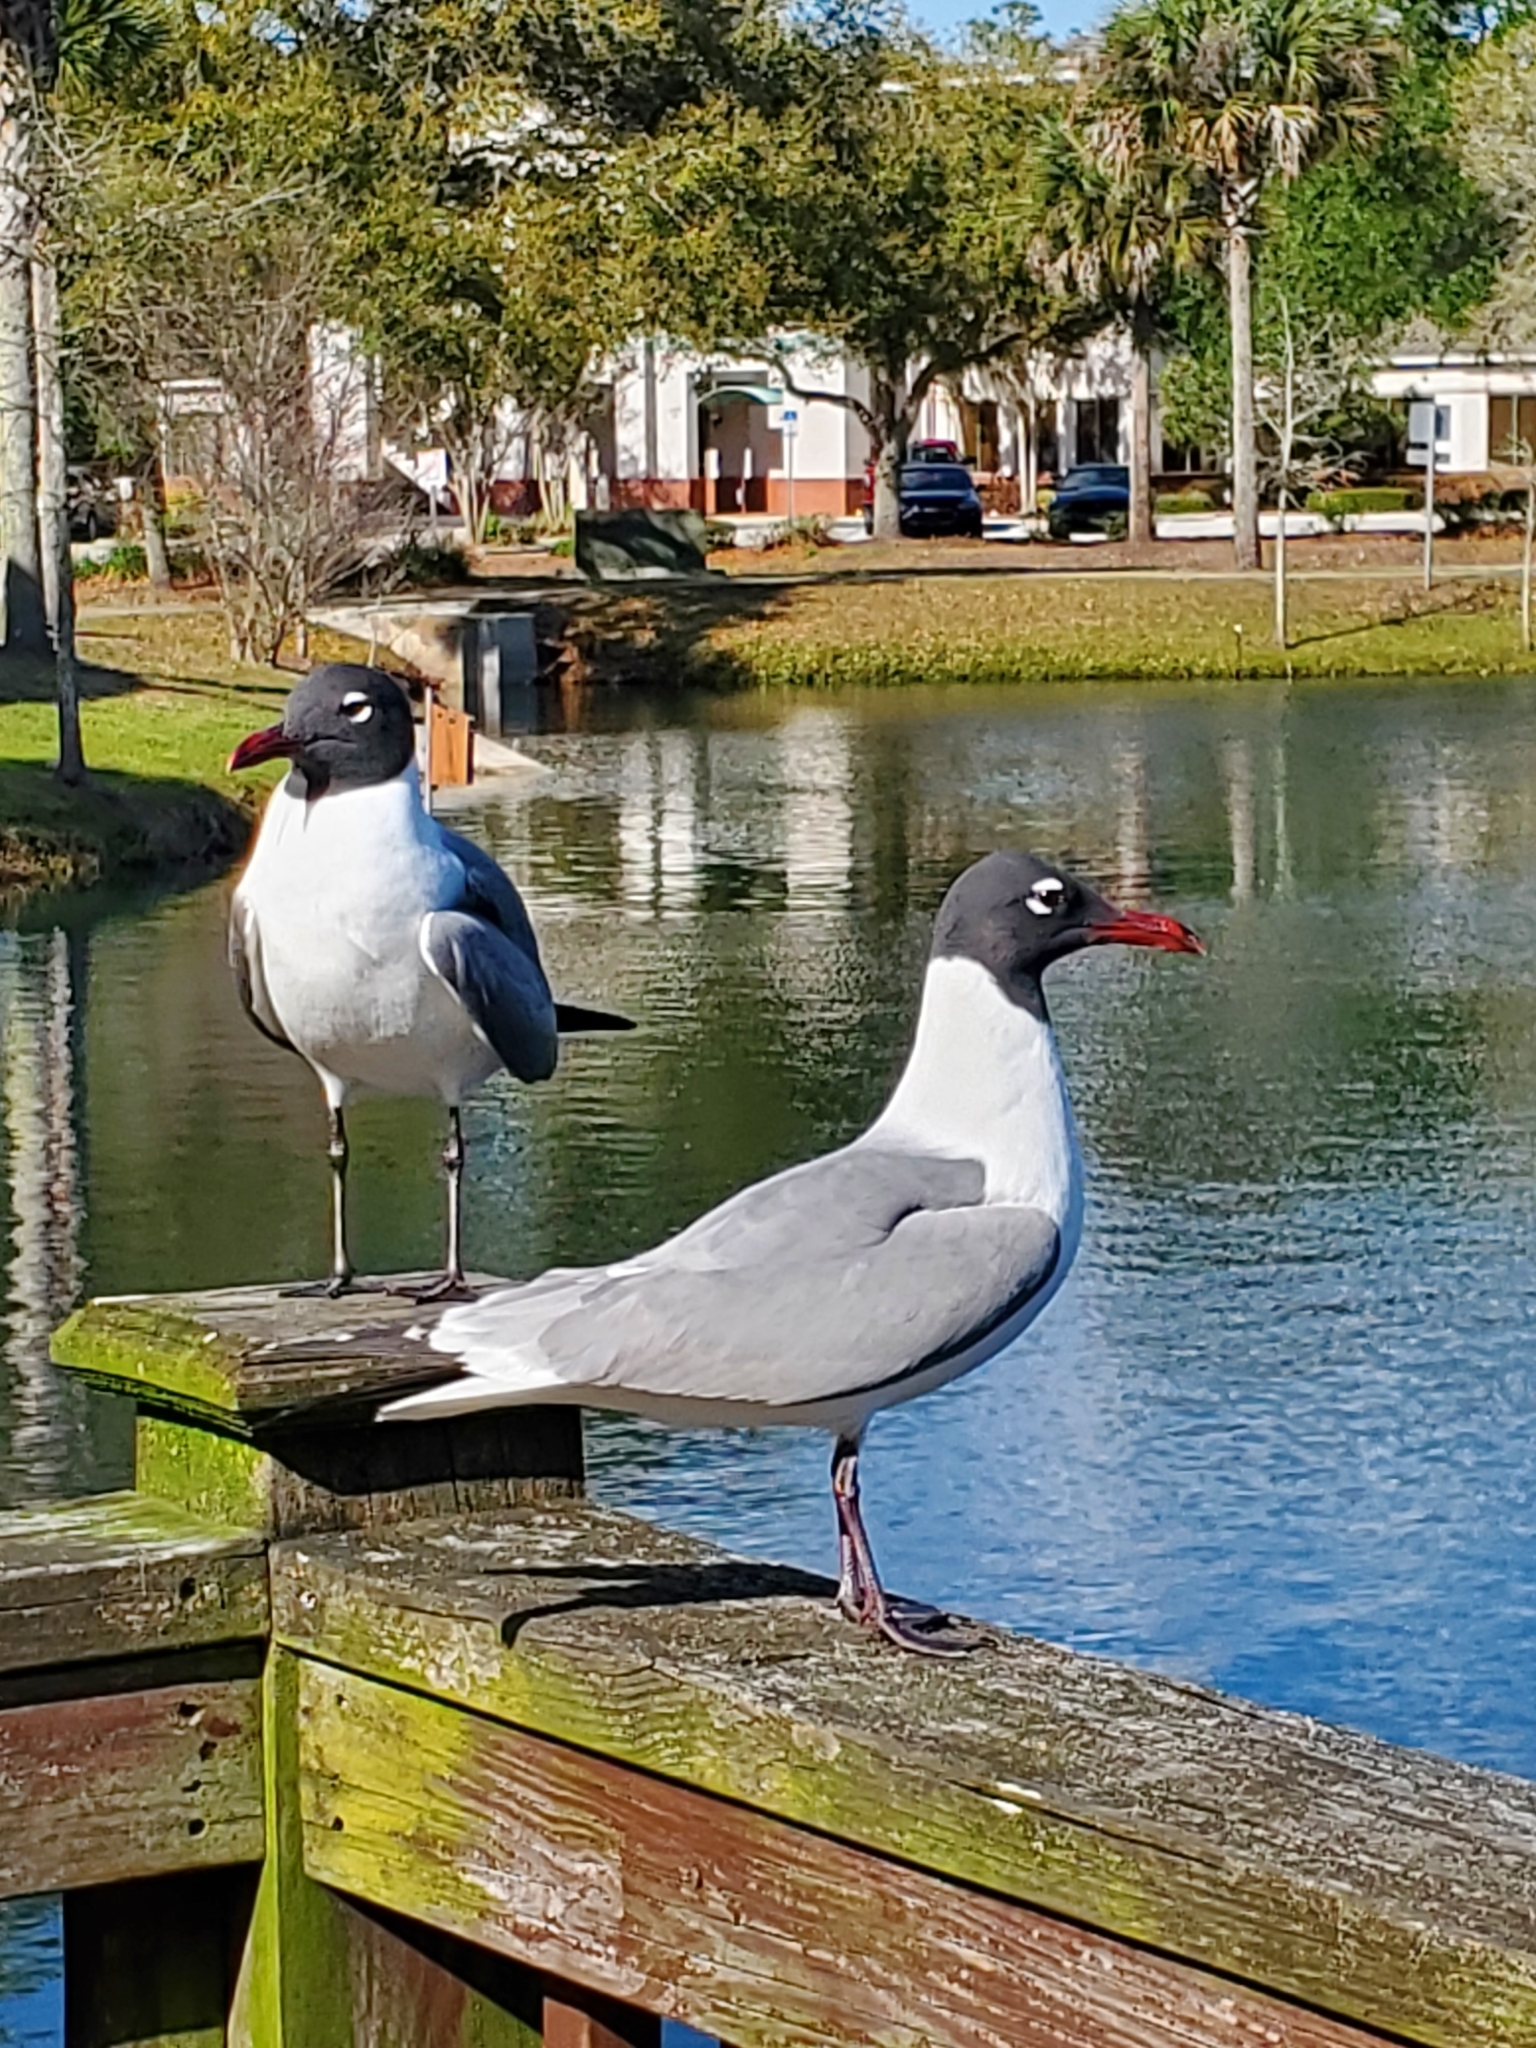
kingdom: Animalia
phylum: Chordata
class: Aves
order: Charadriiformes
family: Laridae
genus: Leucophaeus
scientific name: Leucophaeus atricilla
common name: Laughing gull
